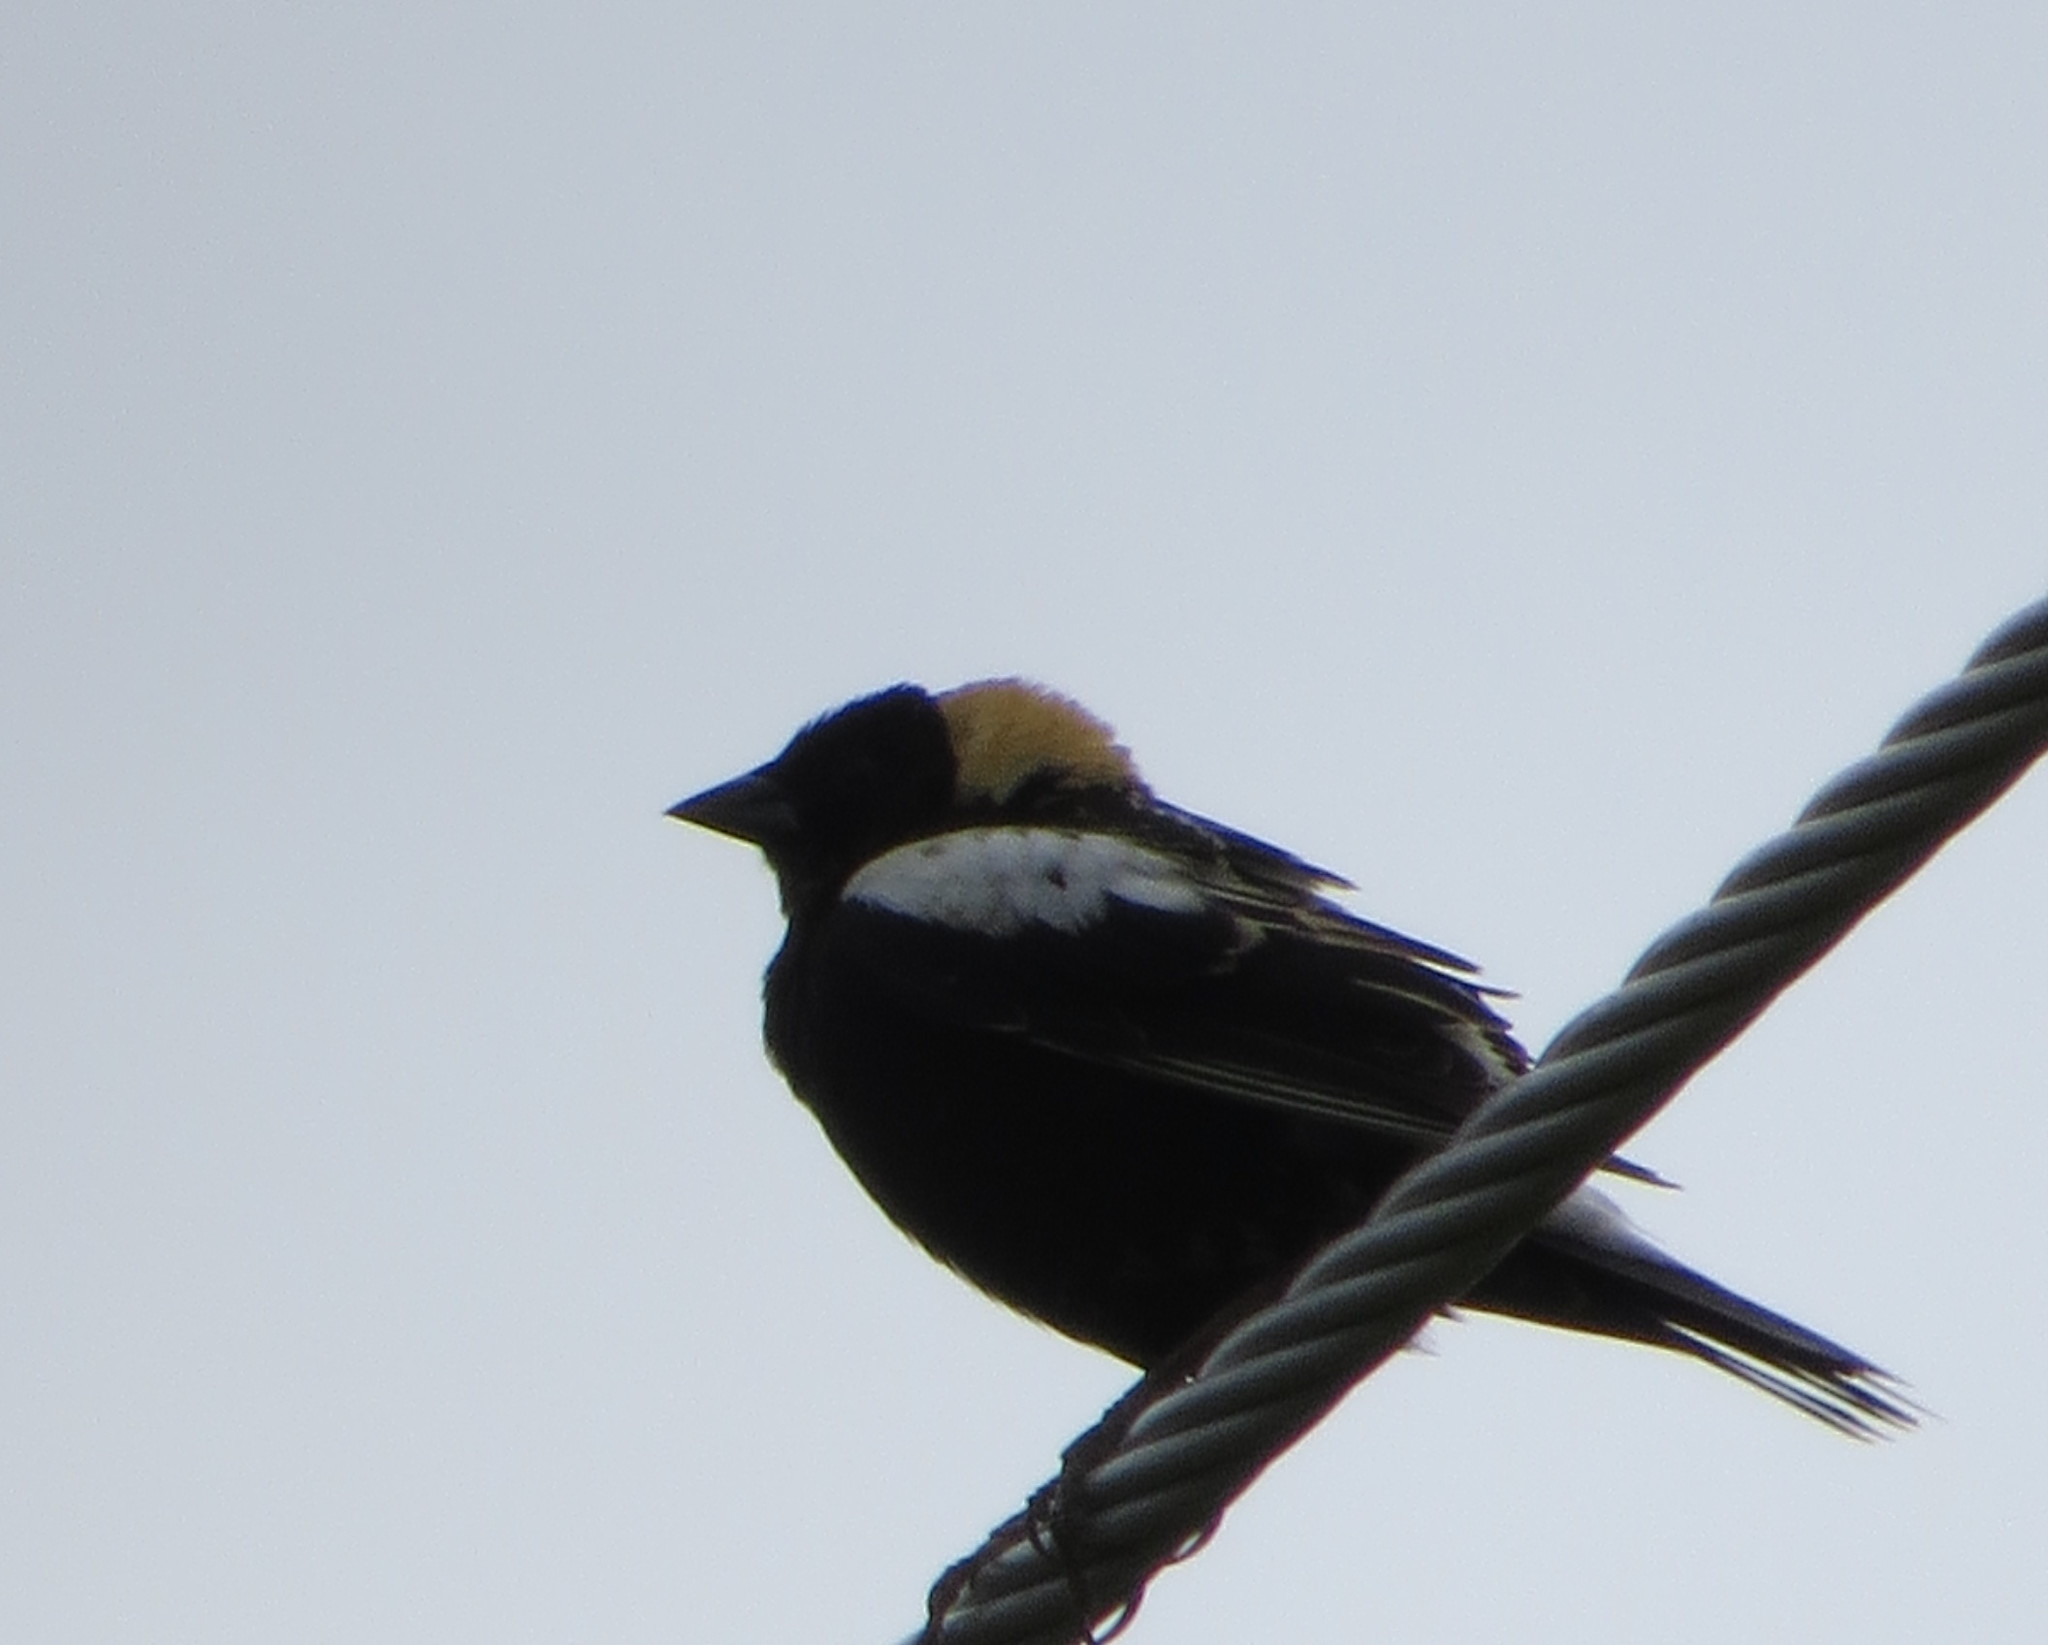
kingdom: Animalia
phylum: Chordata
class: Aves
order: Passeriformes
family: Icteridae
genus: Dolichonyx
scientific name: Dolichonyx oryzivorus
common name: Bobolink
